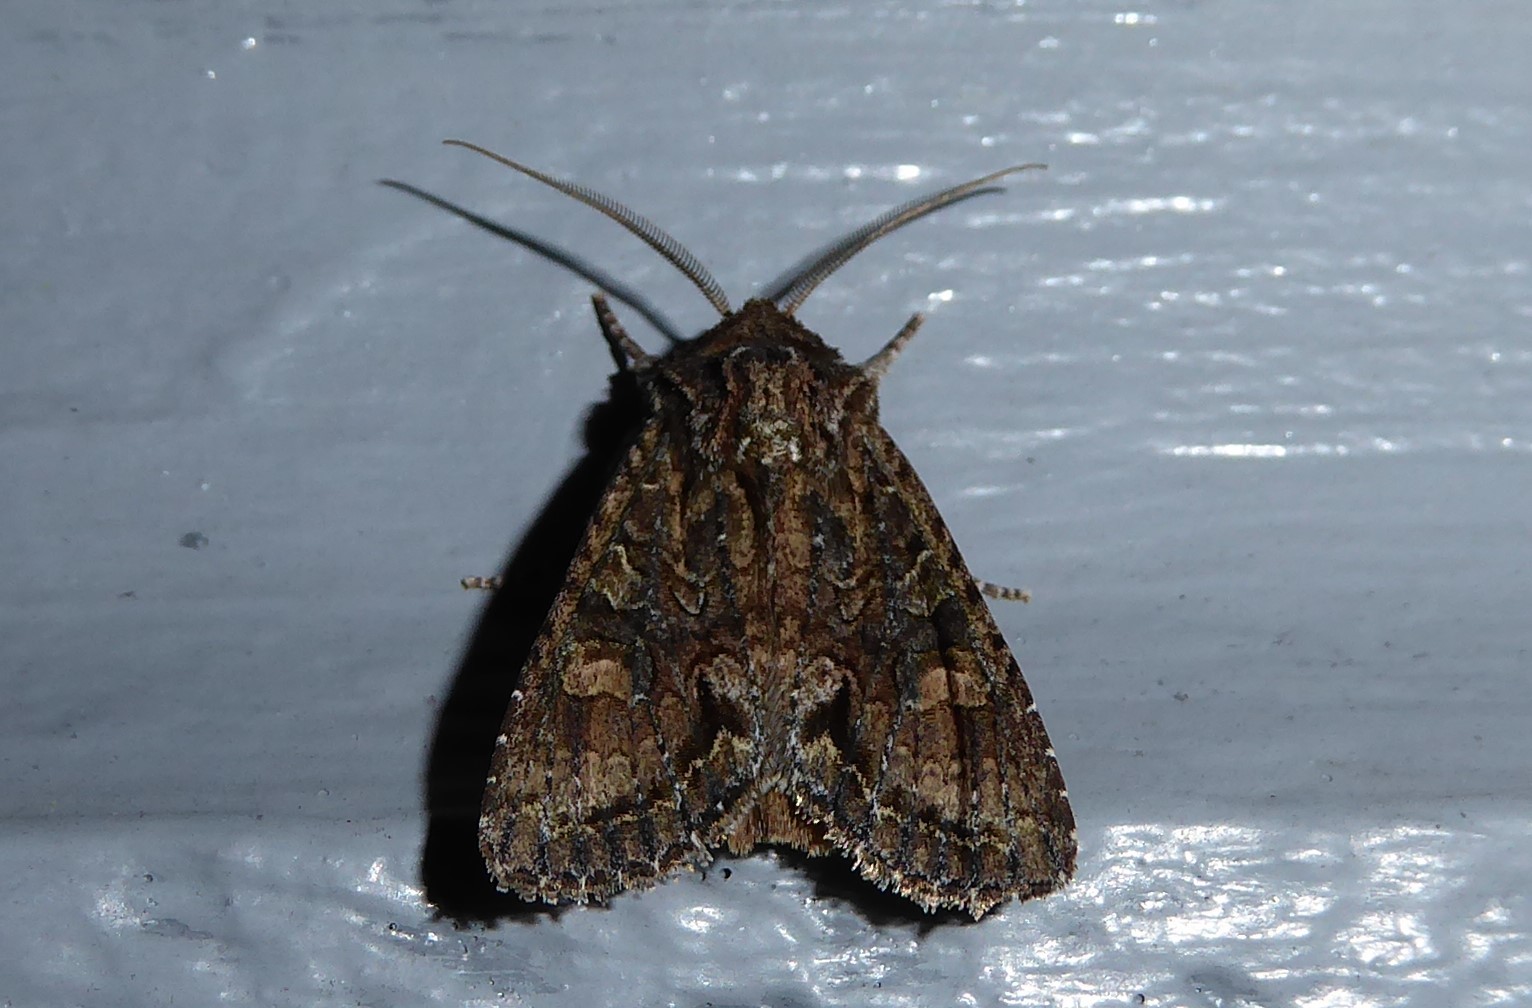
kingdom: Animalia
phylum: Arthropoda
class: Insecta
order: Lepidoptera
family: Noctuidae
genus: Ichneutica
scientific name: Ichneutica mutans
